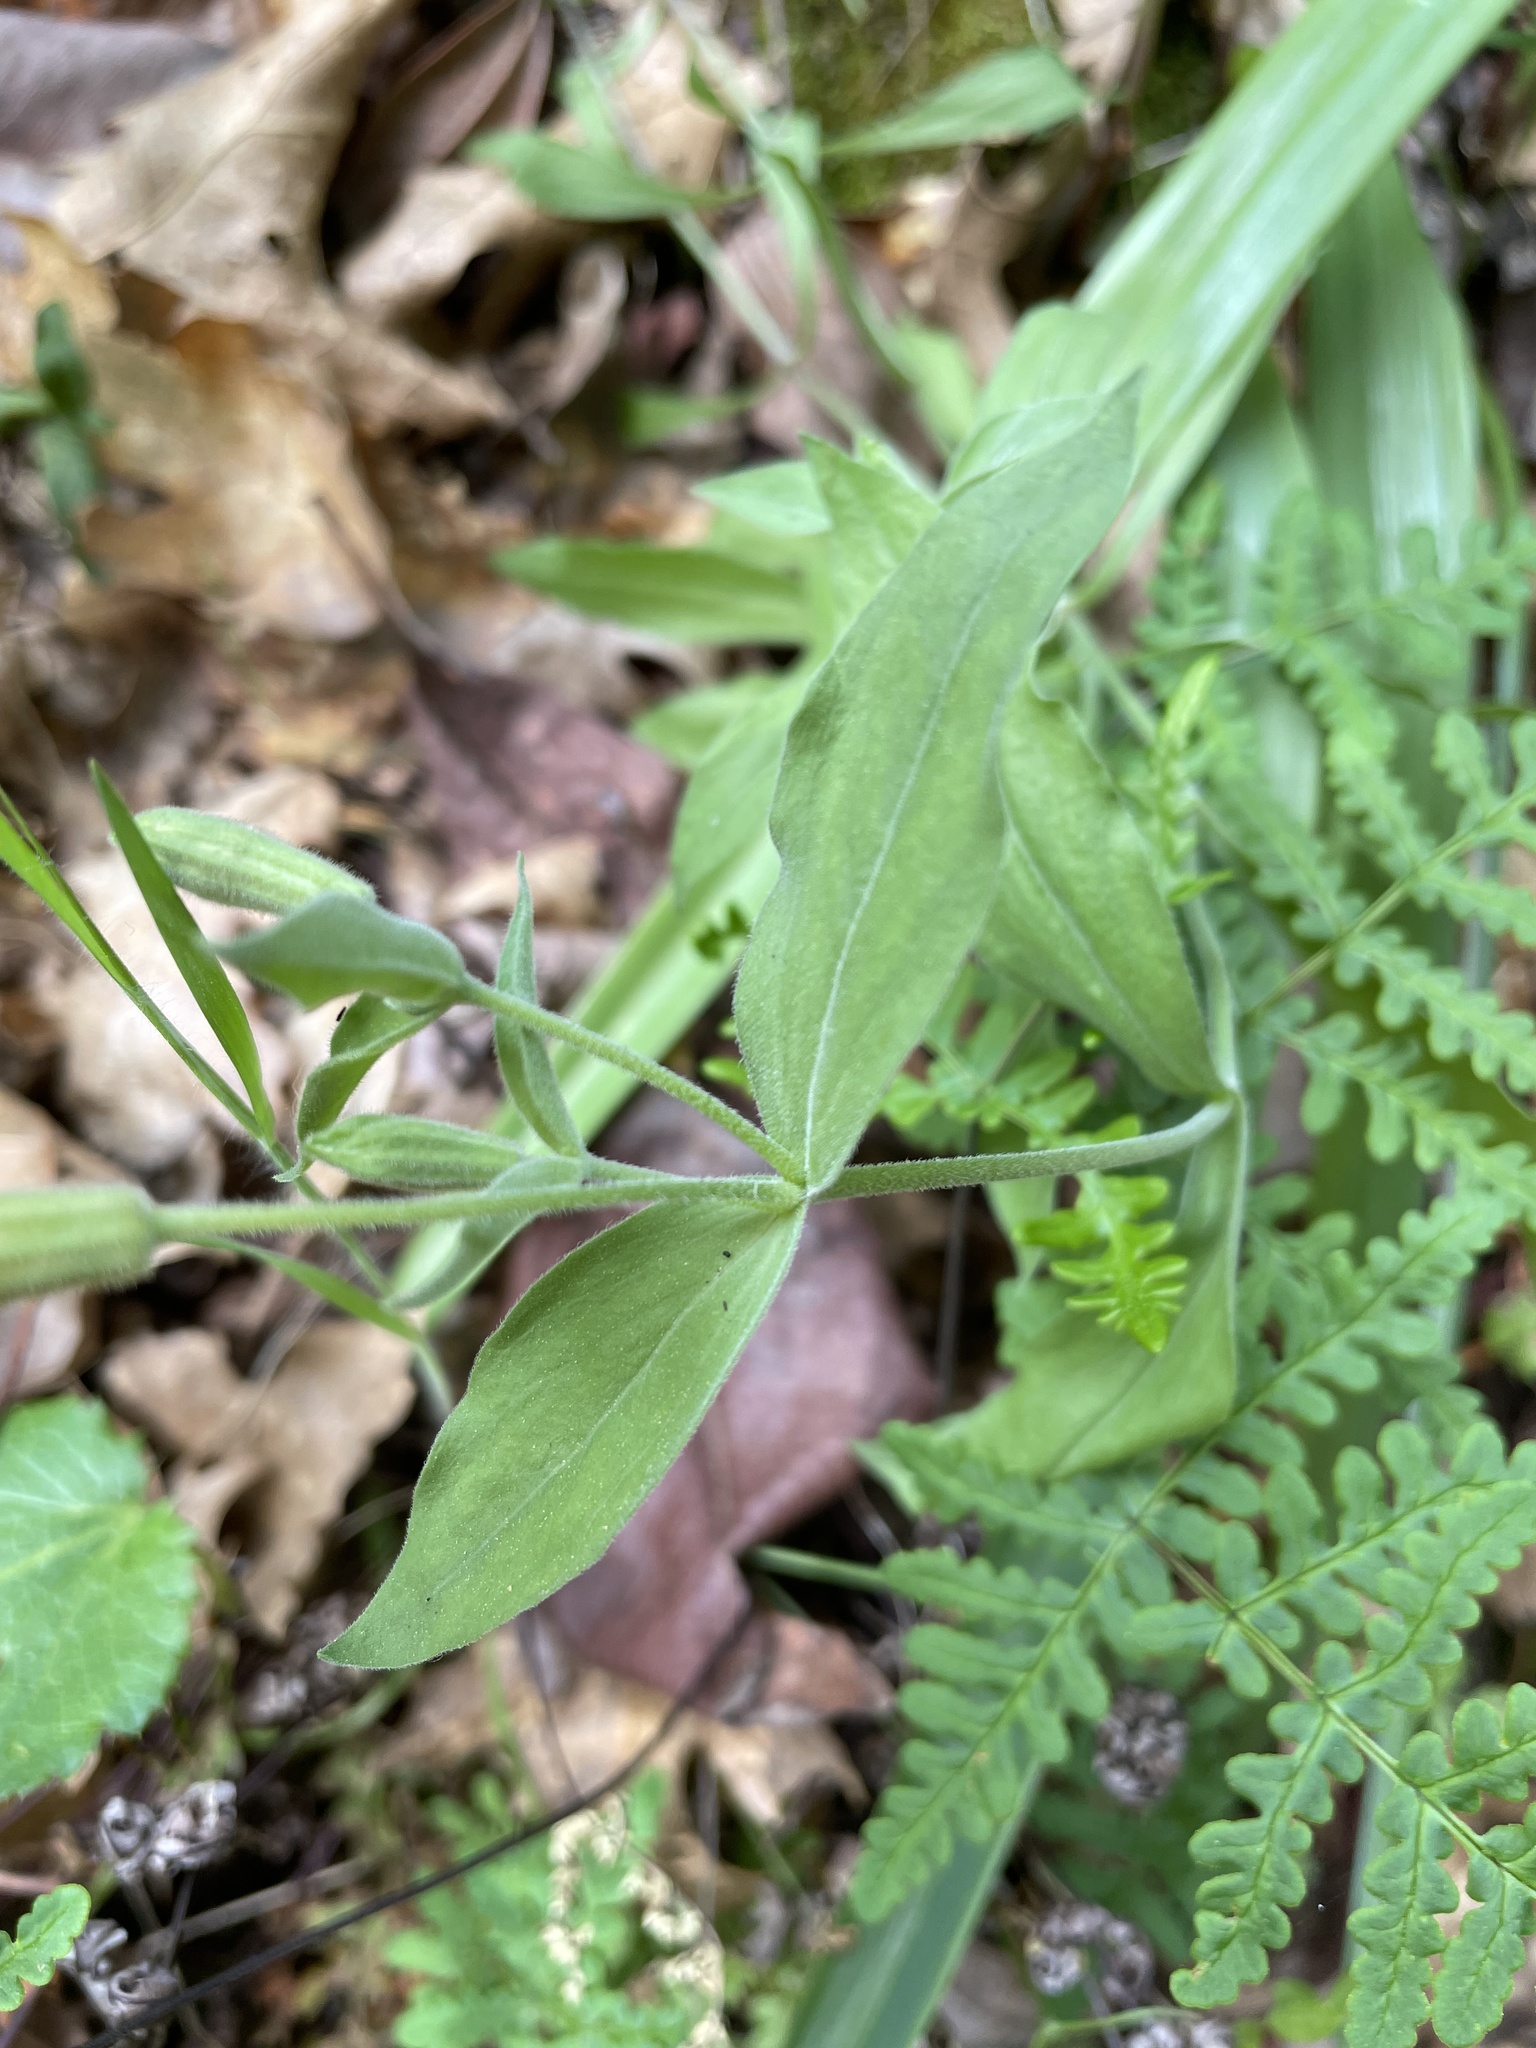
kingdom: Plantae
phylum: Tracheophyta
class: Magnoliopsida
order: Caryophyllales
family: Caryophyllaceae
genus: Silene
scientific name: Silene laciniata
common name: Indian-pink
